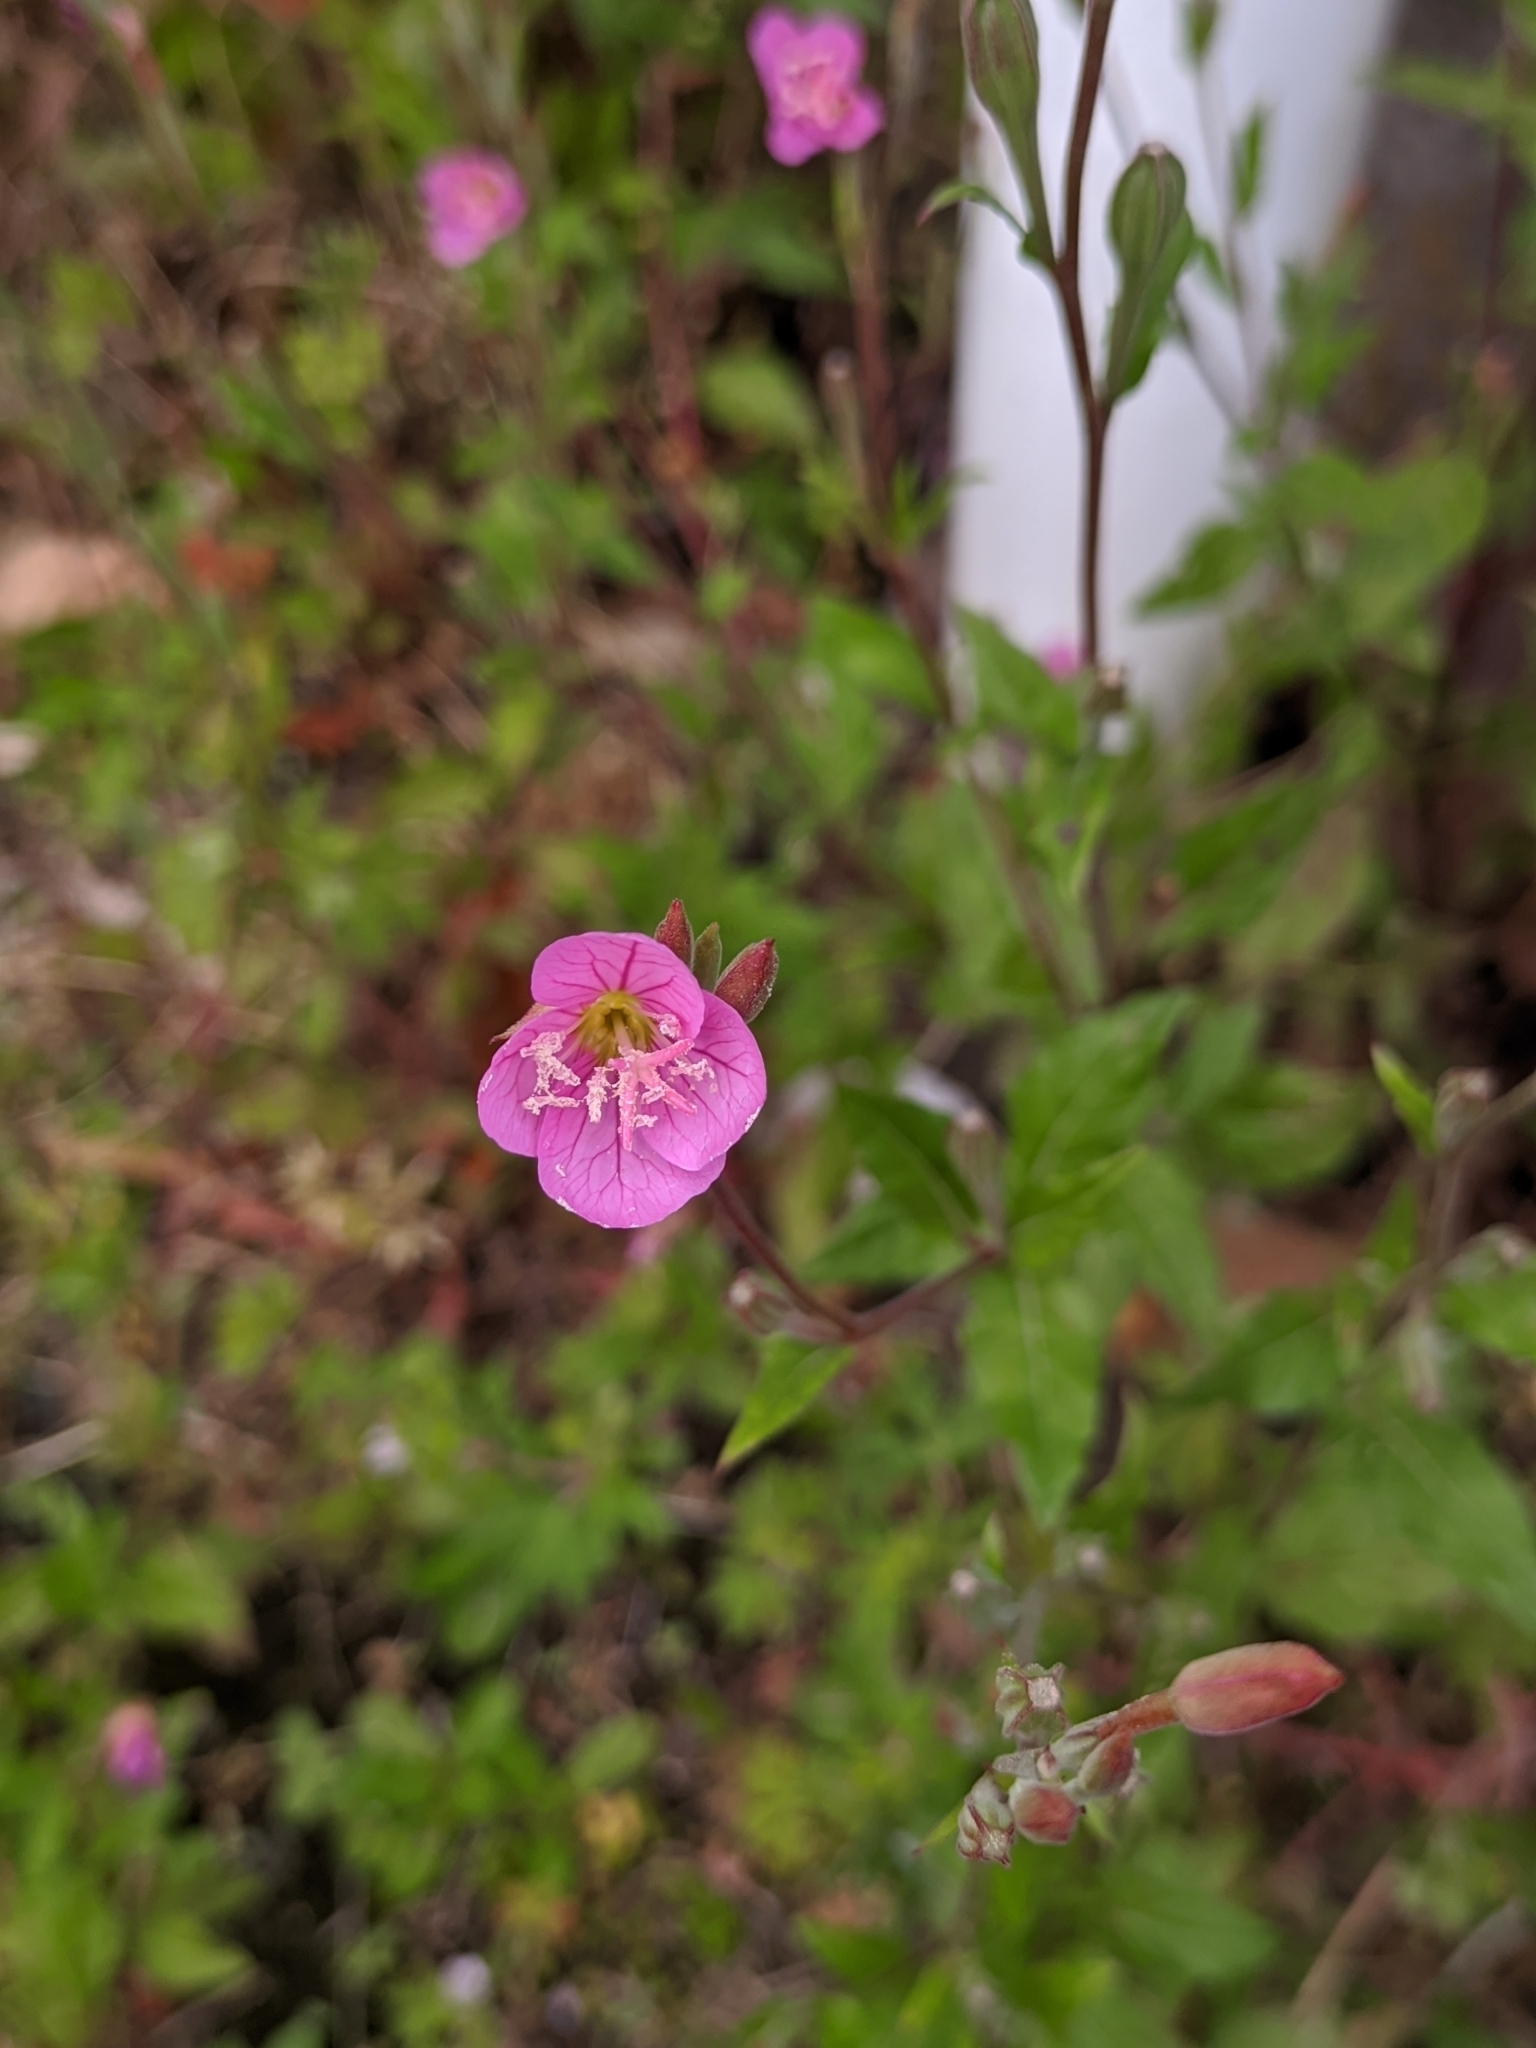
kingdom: Plantae
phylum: Tracheophyta
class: Magnoliopsida
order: Myrtales
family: Onagraceae
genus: Oenothera
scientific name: Oenothera rosea
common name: Rosy evening-primrose
